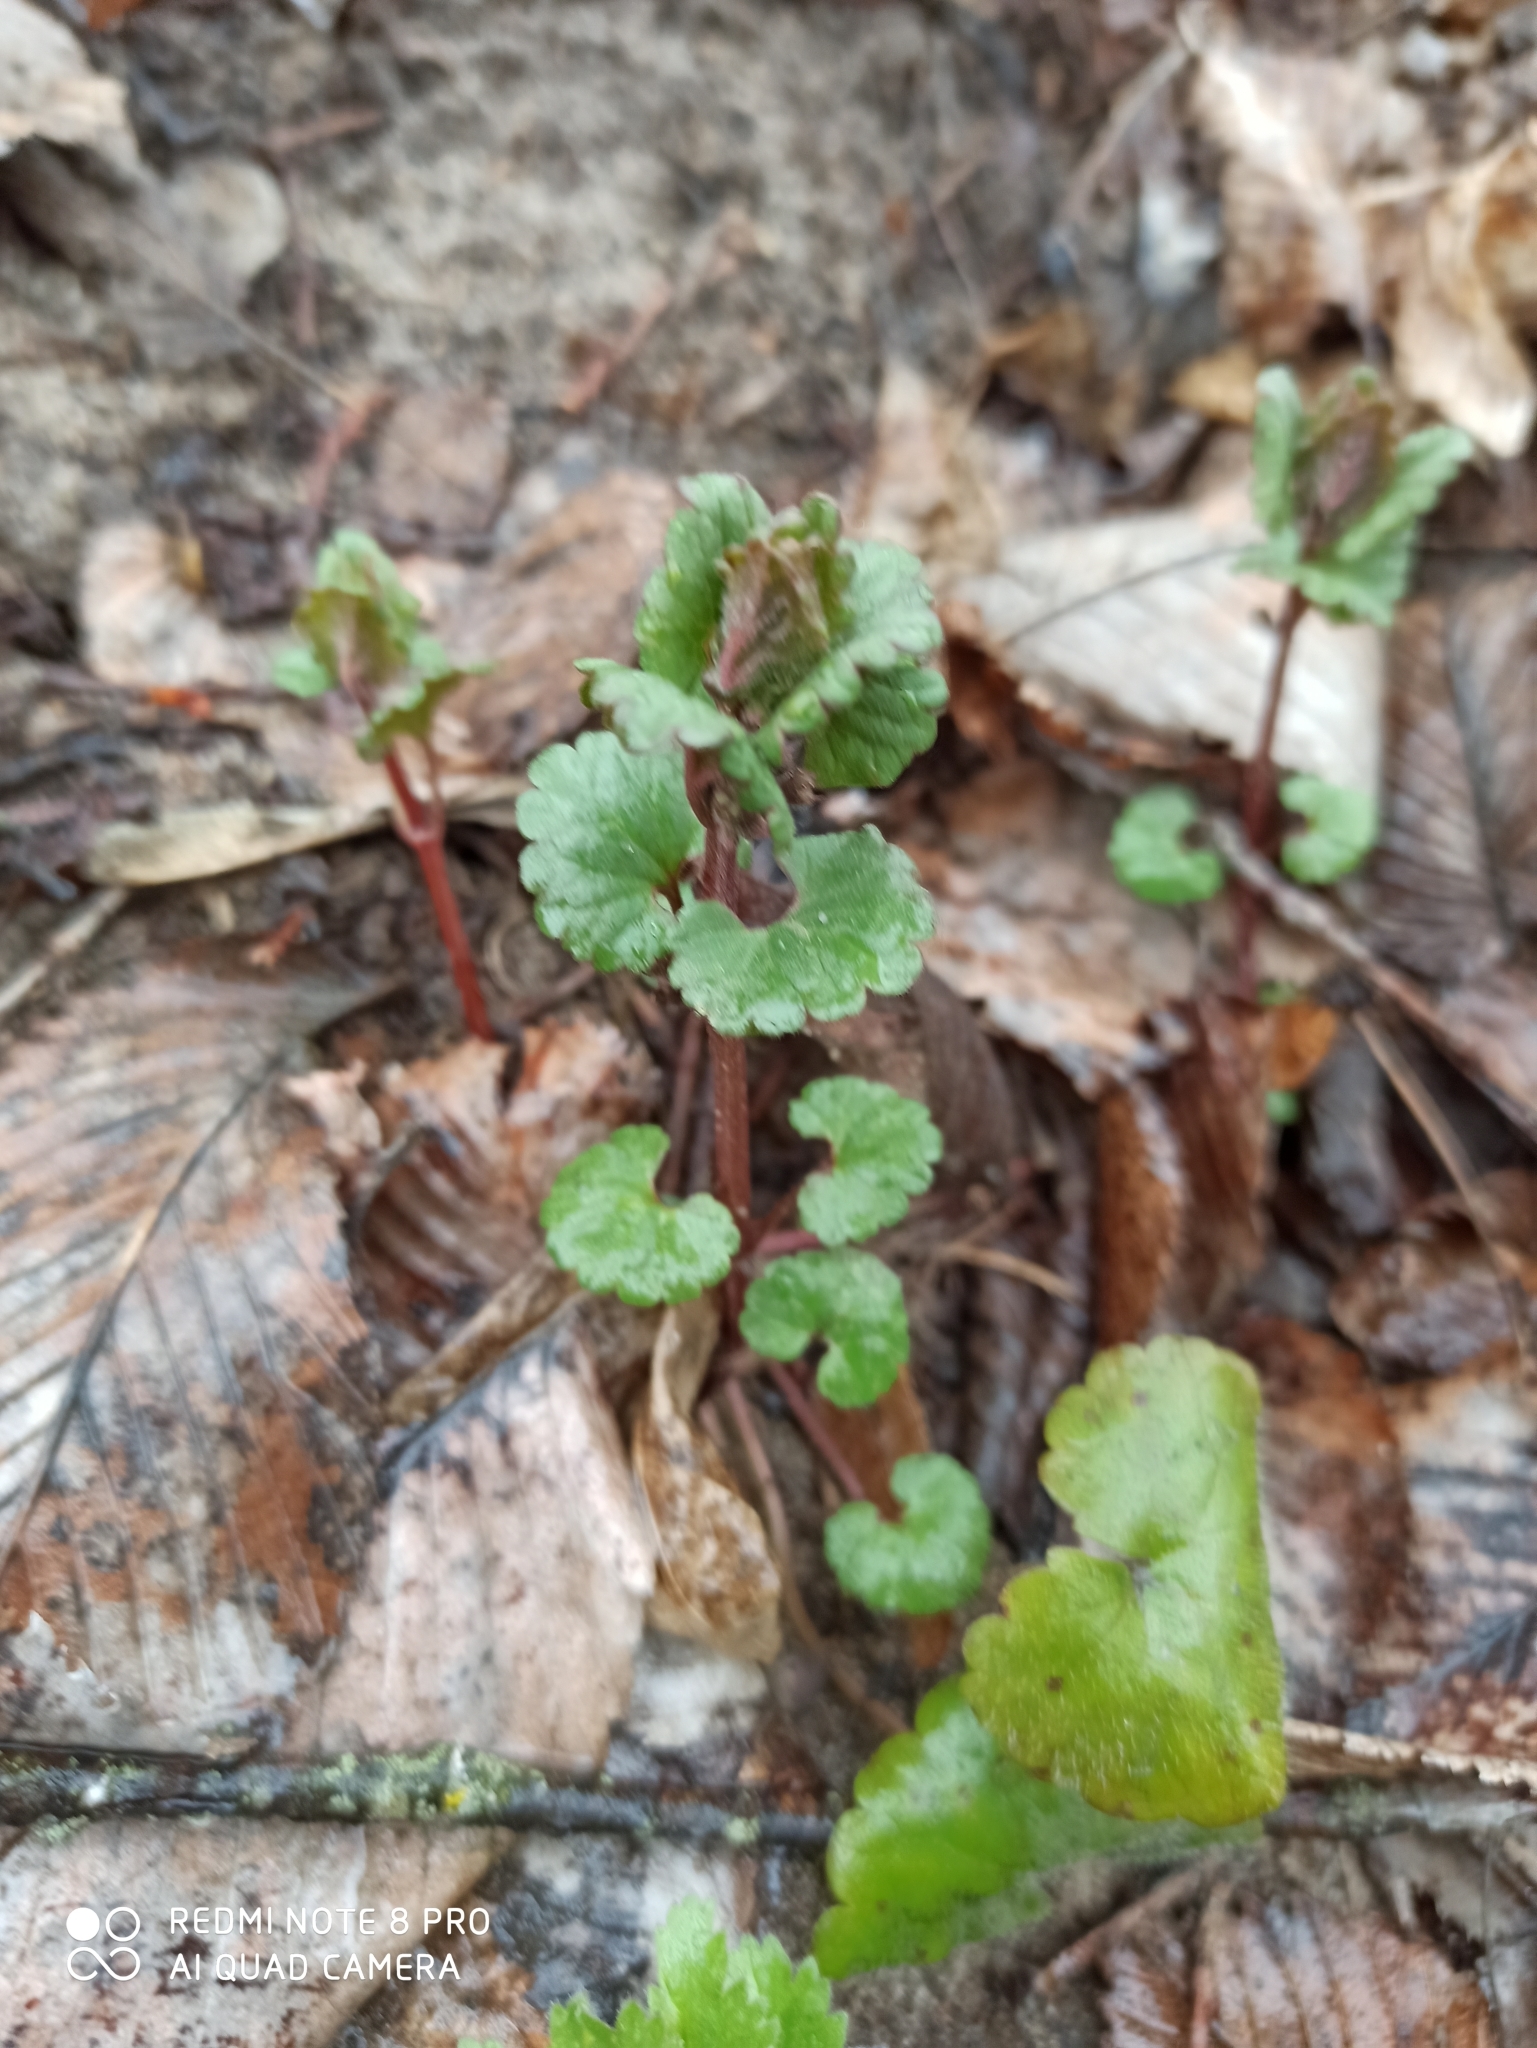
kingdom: Plantae
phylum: Tracheophyta
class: Magnoliopsida
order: Lamiales
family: Lamiaceae
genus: Glechoma
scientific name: Glechoma hederacea
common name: Ground ivy
